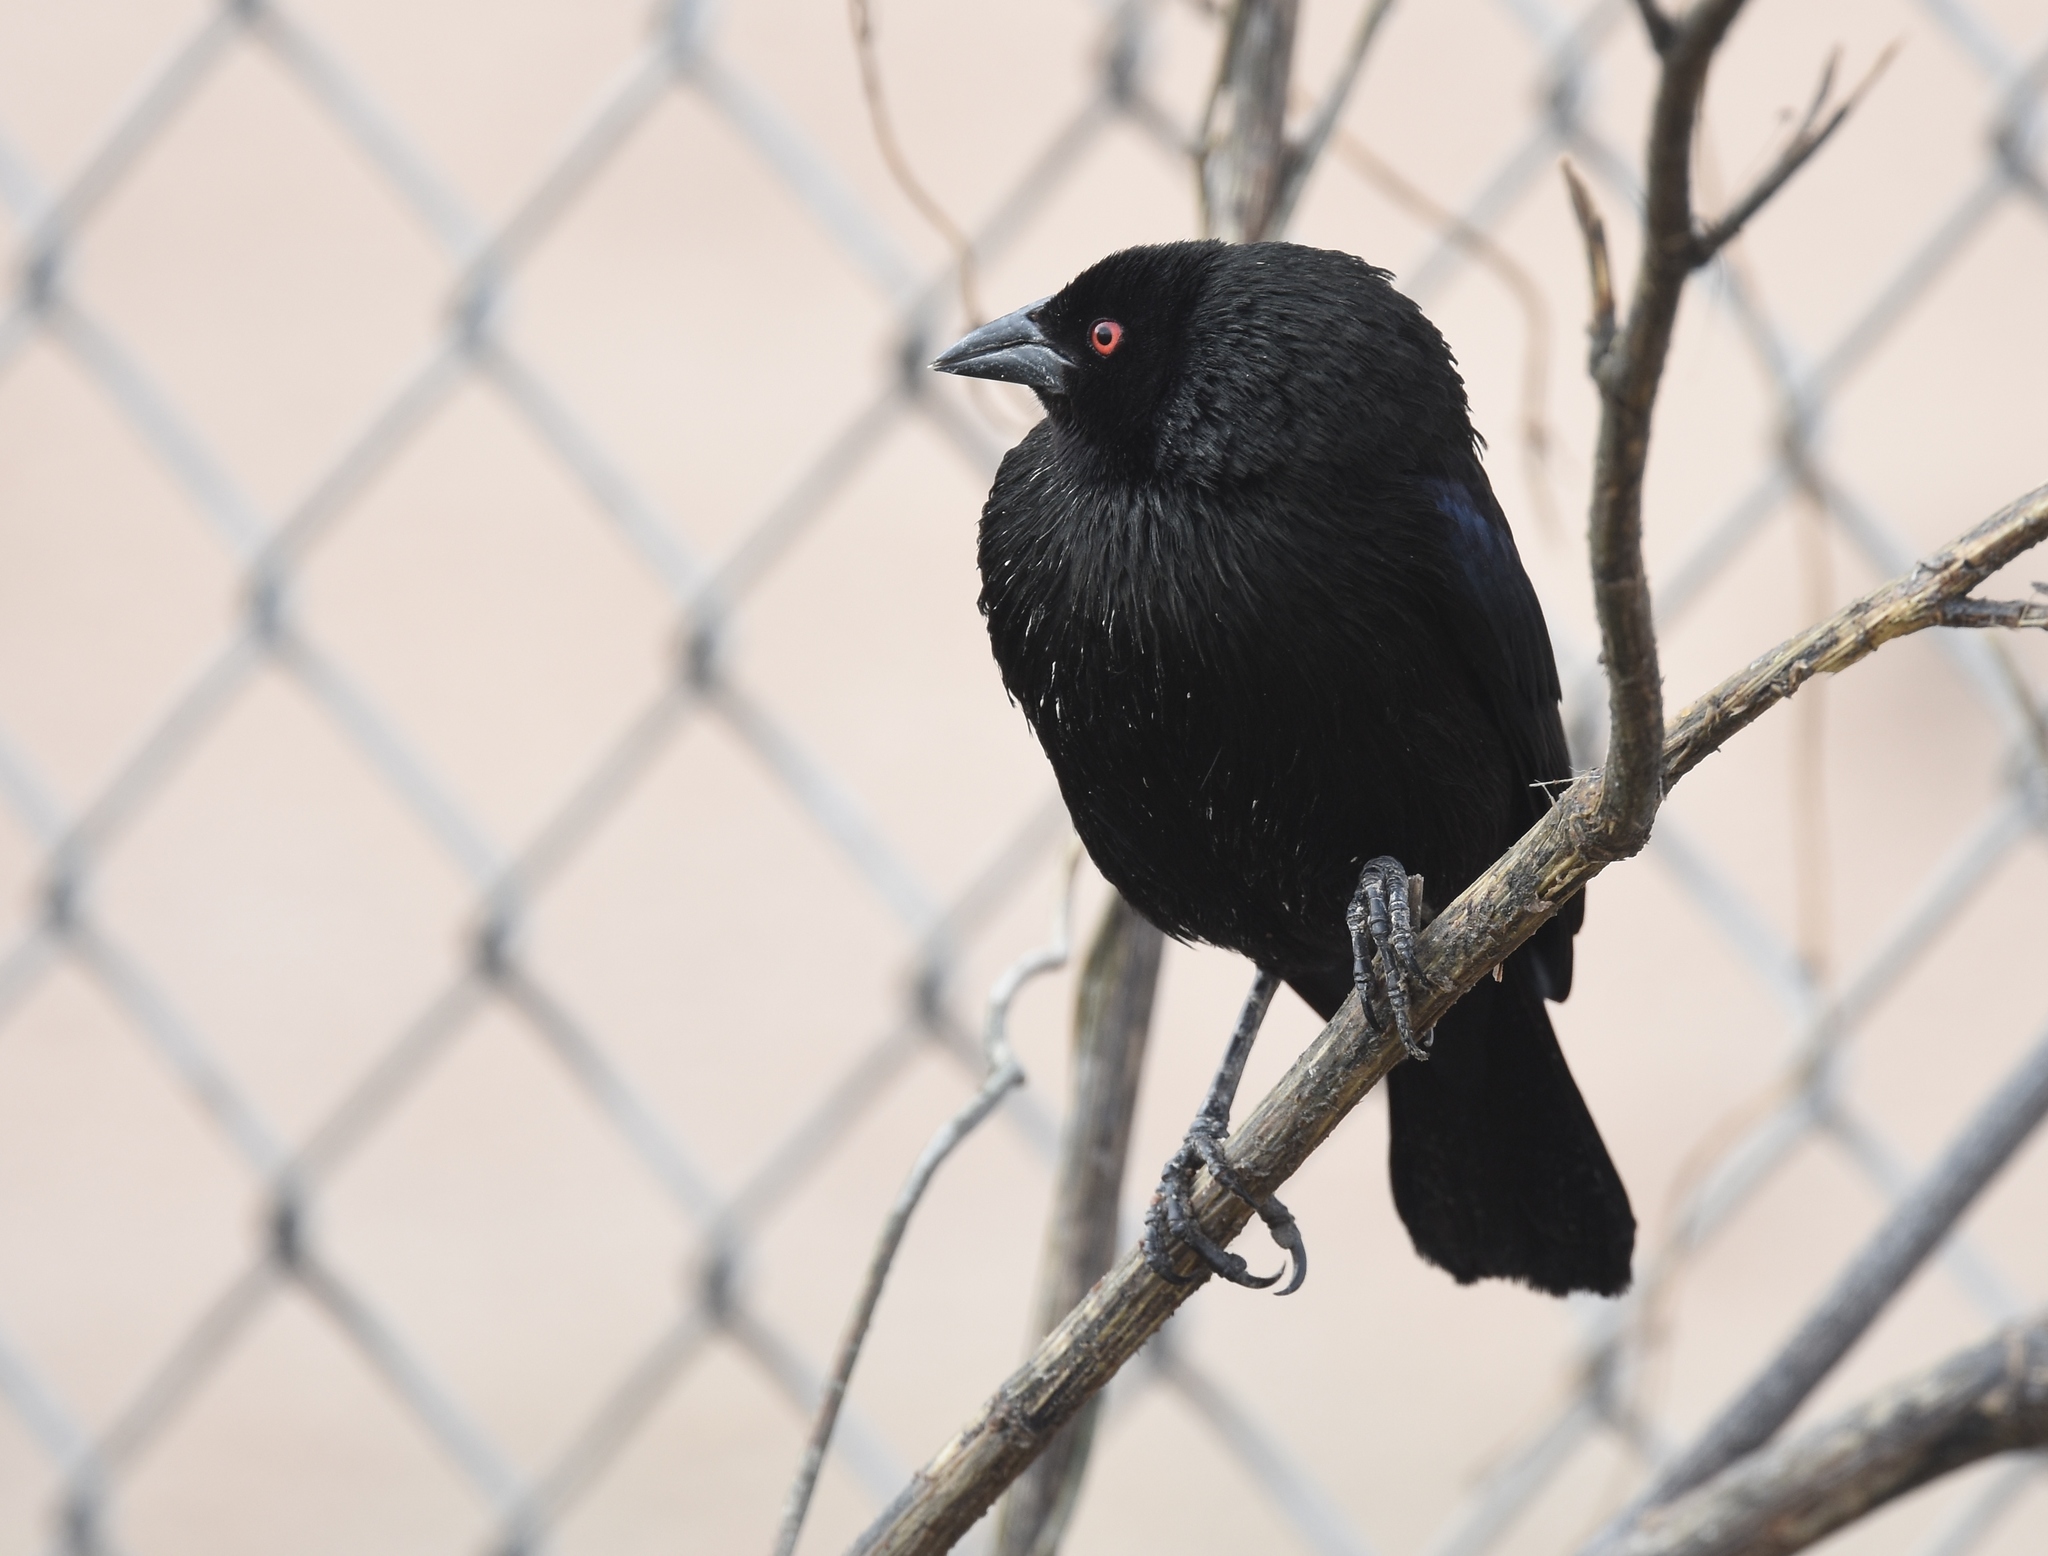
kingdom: Animalia
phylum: Chordata
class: Aves
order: Passeriformes
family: Icteridae
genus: Molothrus
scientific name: Molothrus aeneus
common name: Bronzed cowbird
